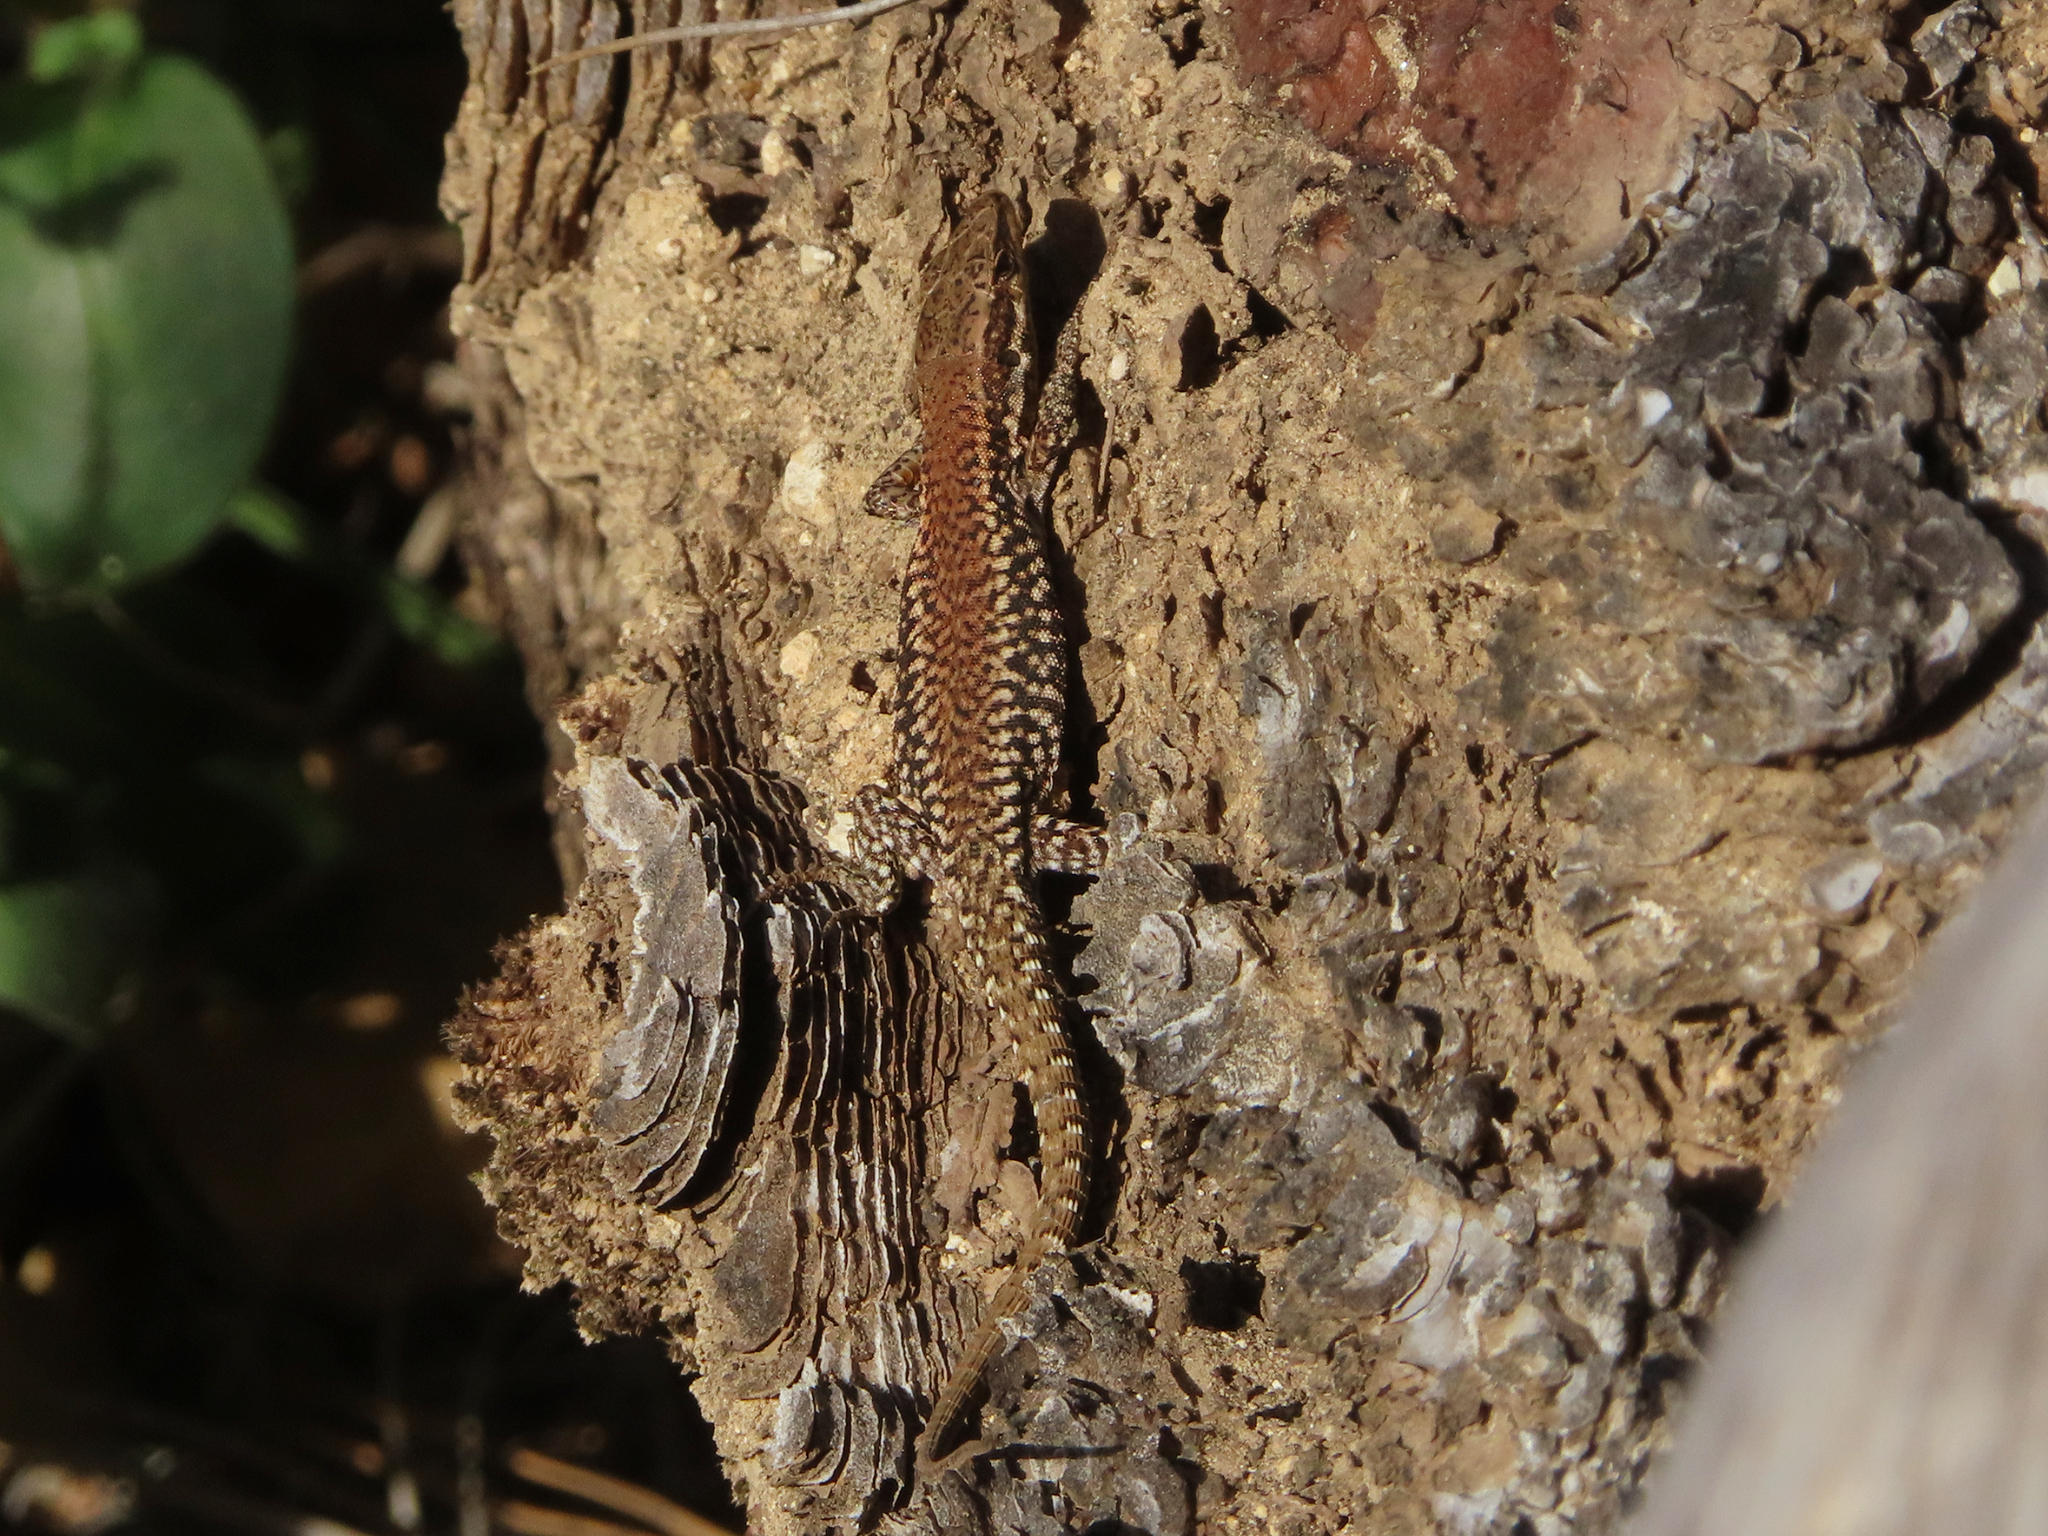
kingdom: Animalia
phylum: Chordata
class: Squamata
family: Lacertidae
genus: Podarcis
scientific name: Podarcis muralis
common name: Common wall lizard
